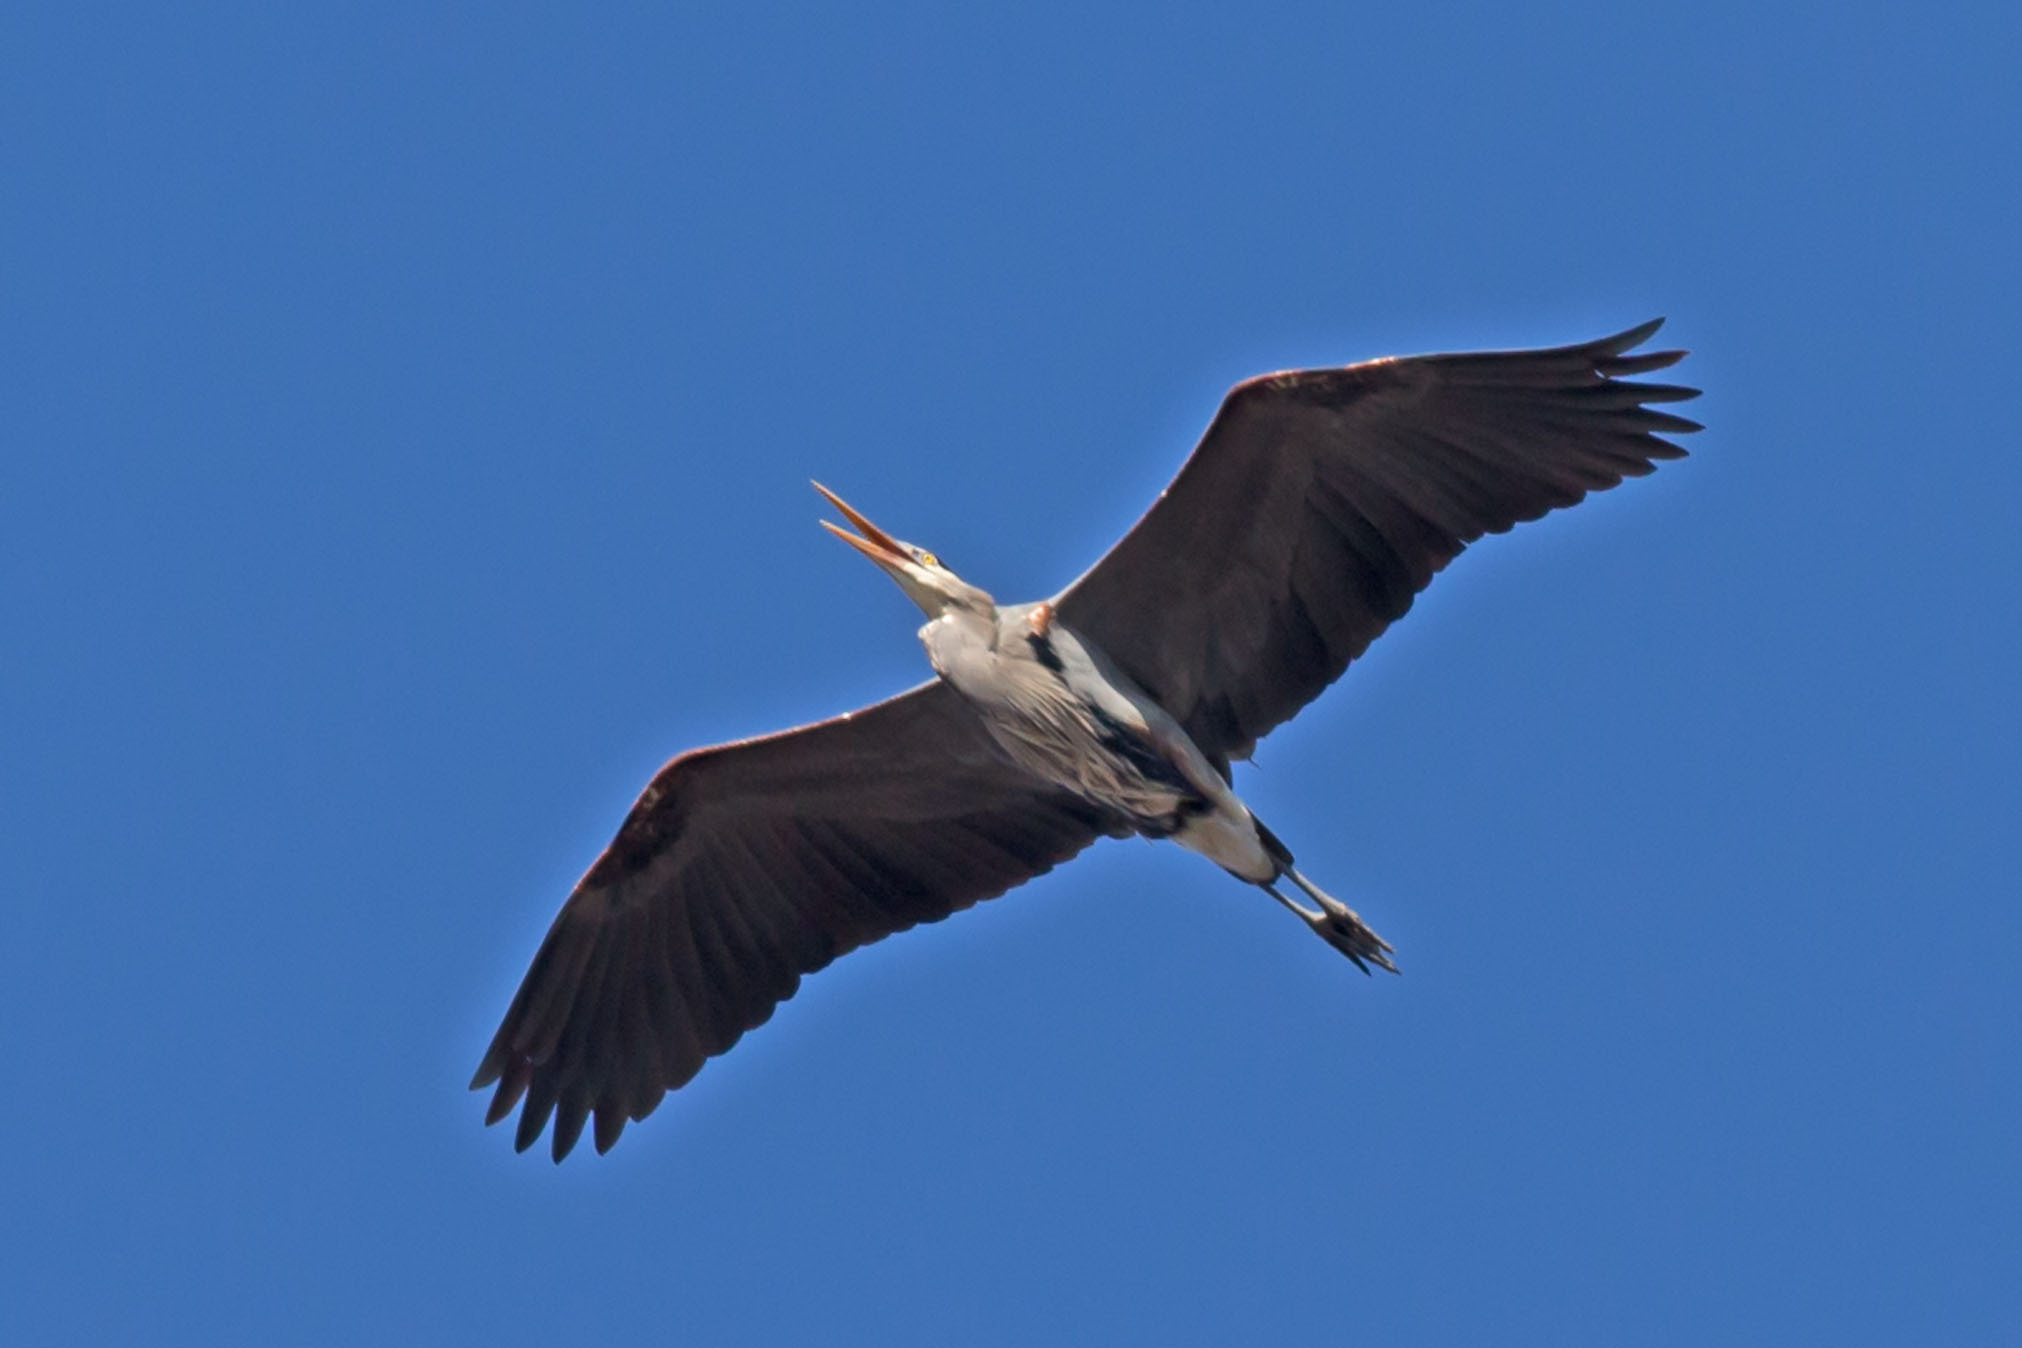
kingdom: Animalia
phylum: Chordata
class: Aves
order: Pelecaniformes
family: Ardeidae
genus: Ardea
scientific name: Ardea herodias
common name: Great blue heron
